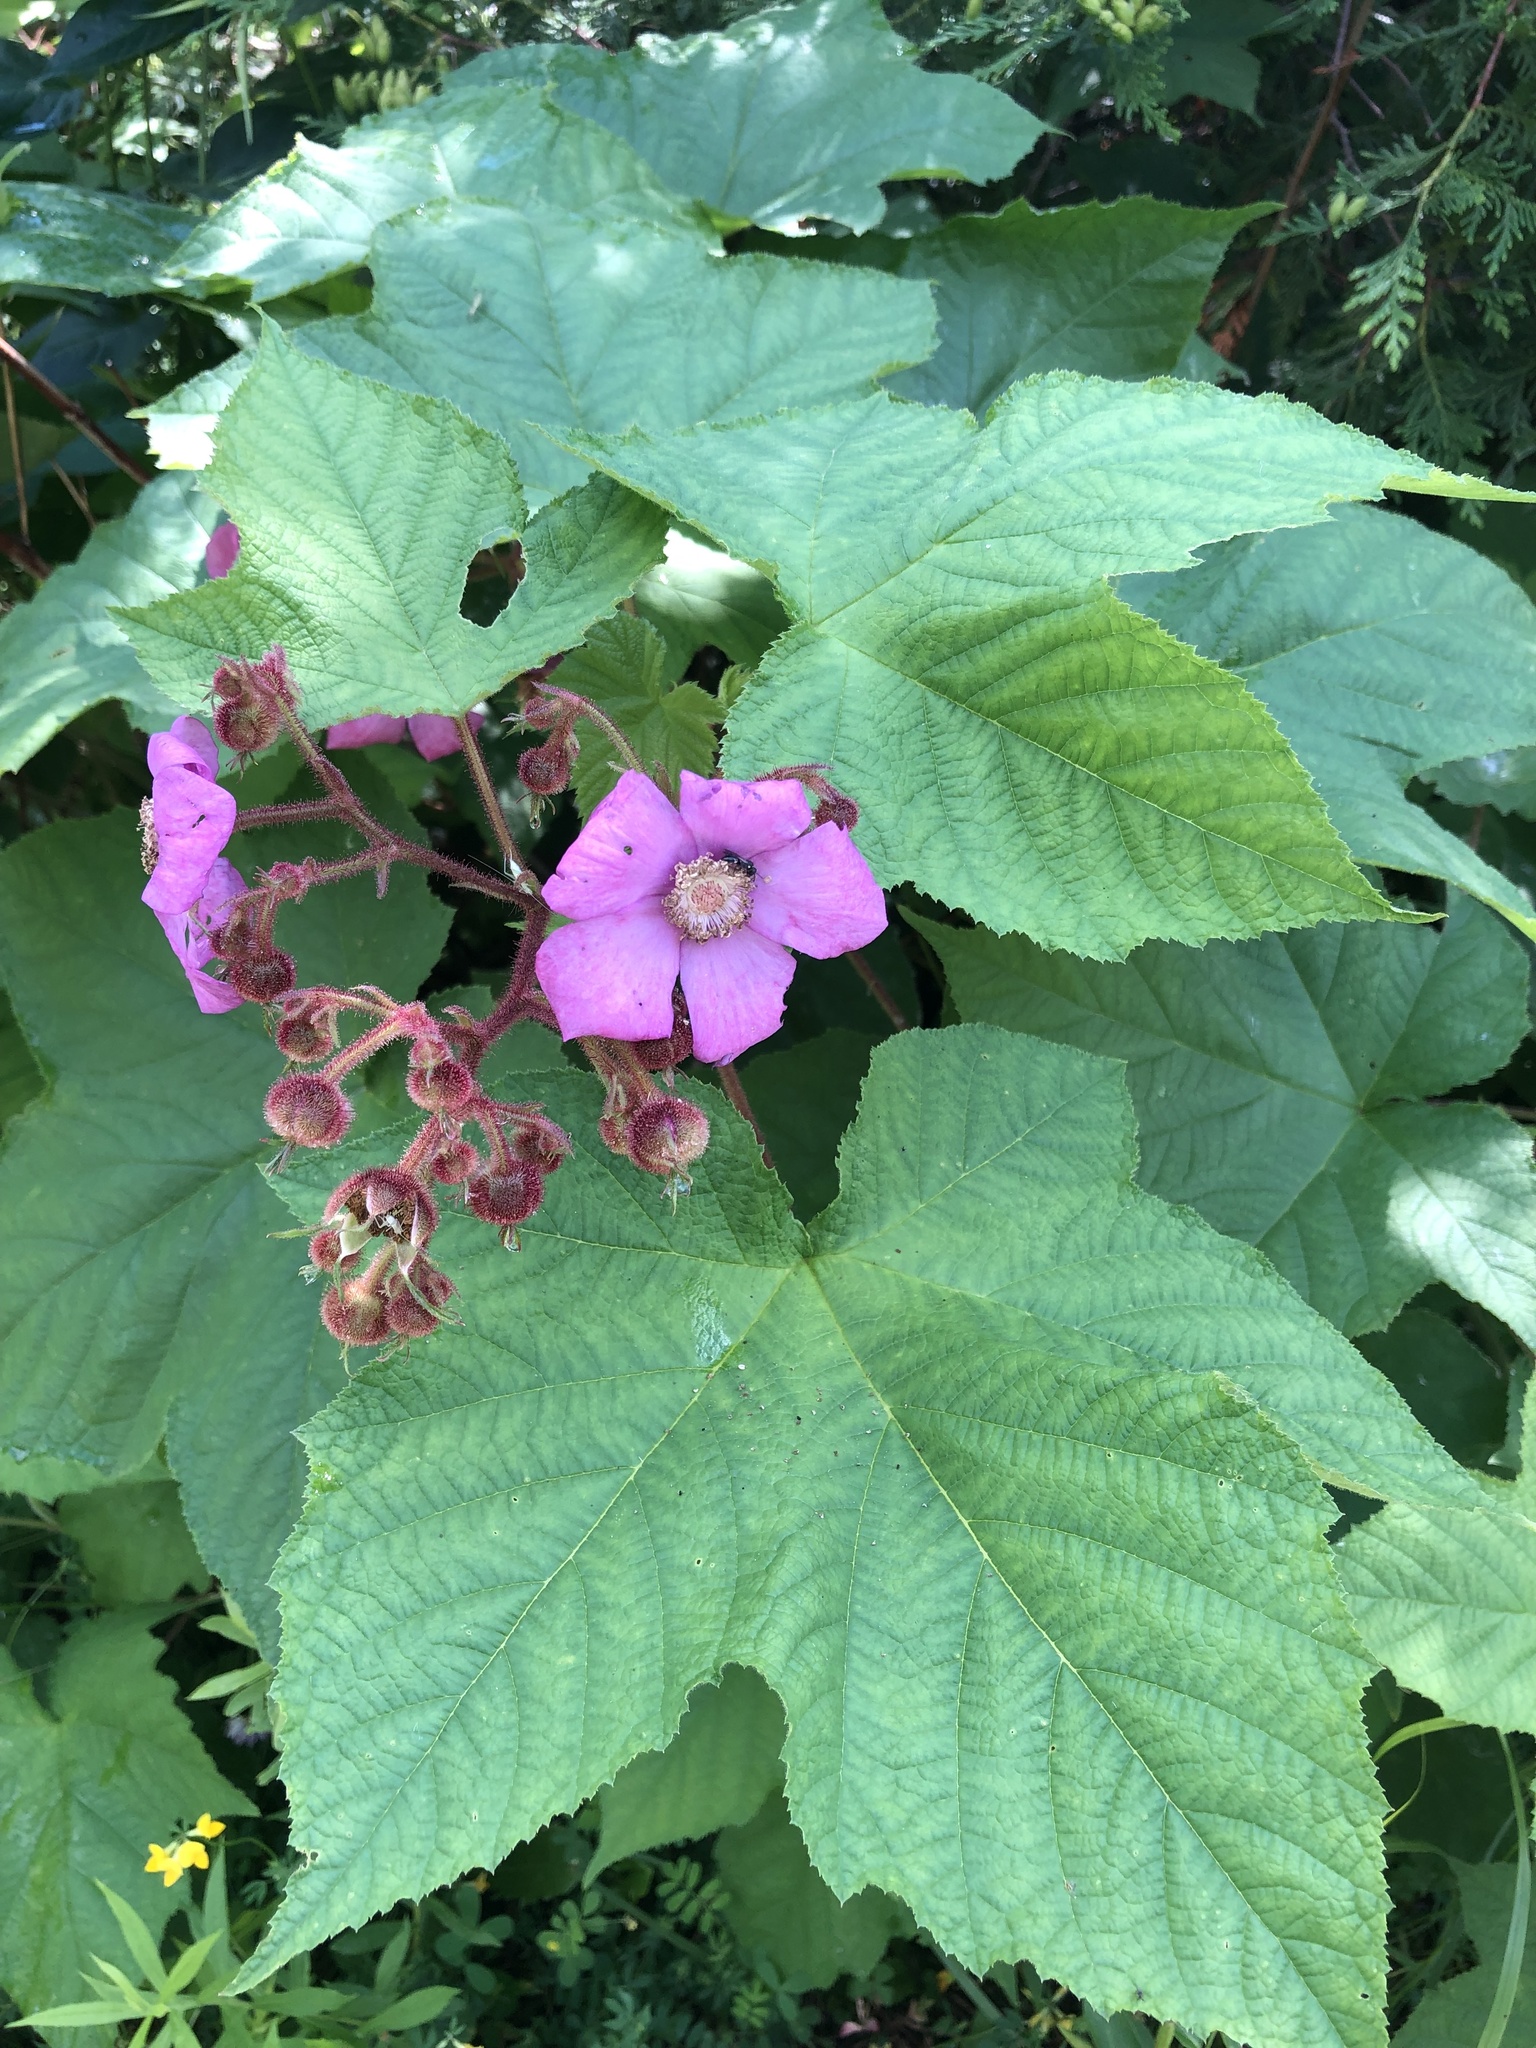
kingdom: Plantae
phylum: Tracheophyta
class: Magnoliopsida
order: Rosales
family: Rosaceae
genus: Rubus
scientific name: Rubus odoratus
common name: Purple-flowered raspberry
